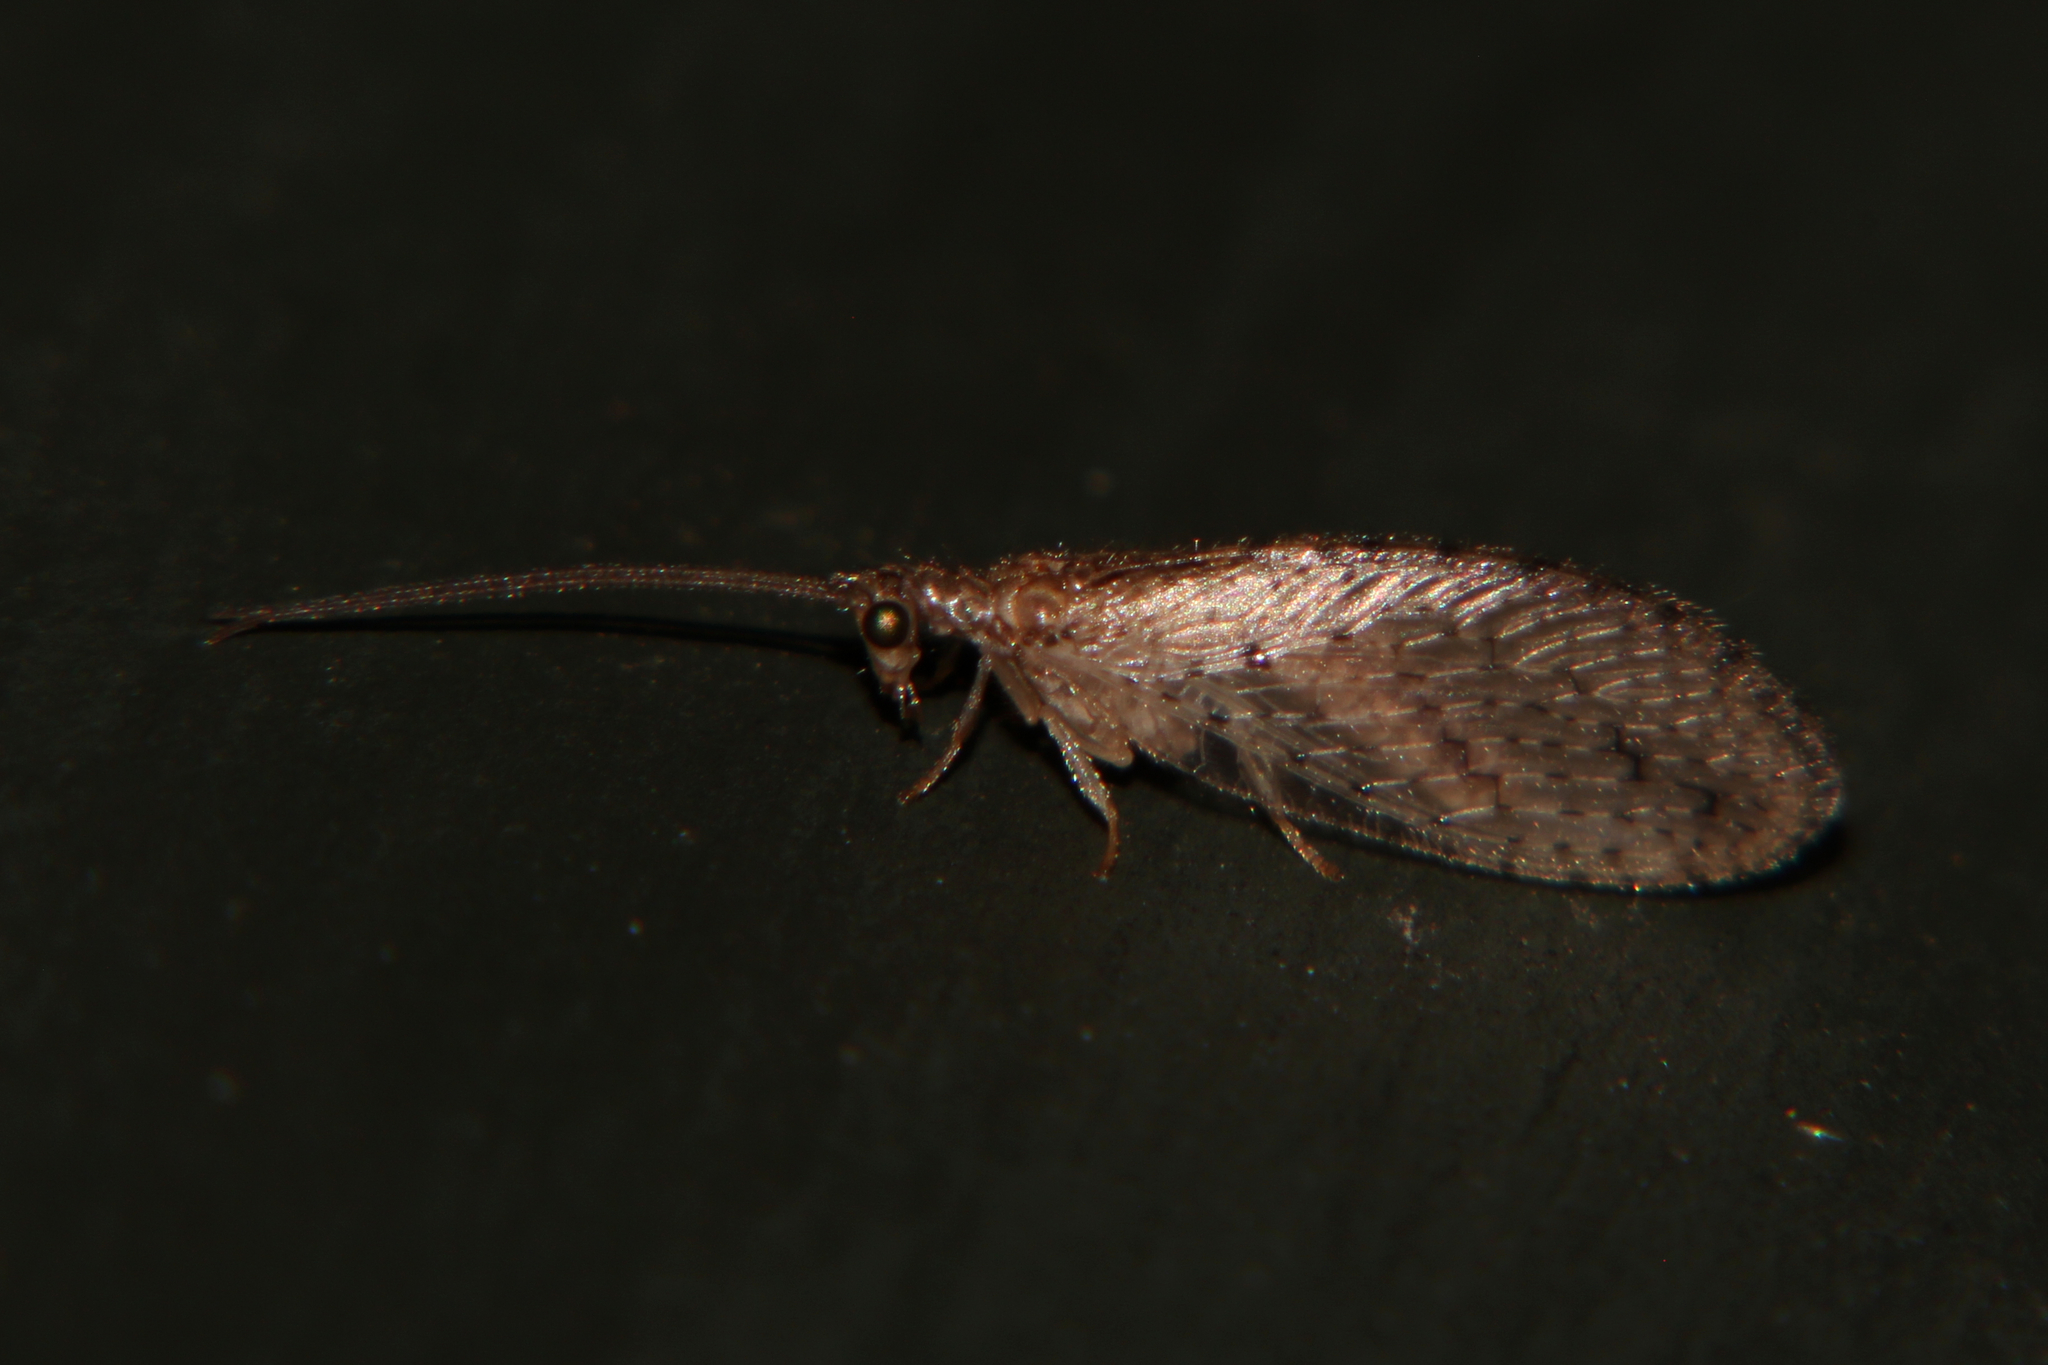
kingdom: Animalia
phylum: Arthropoda
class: Insecta
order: Neuroptera
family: Hemerobiidae
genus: Micromus
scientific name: Micromus tasmaniae
